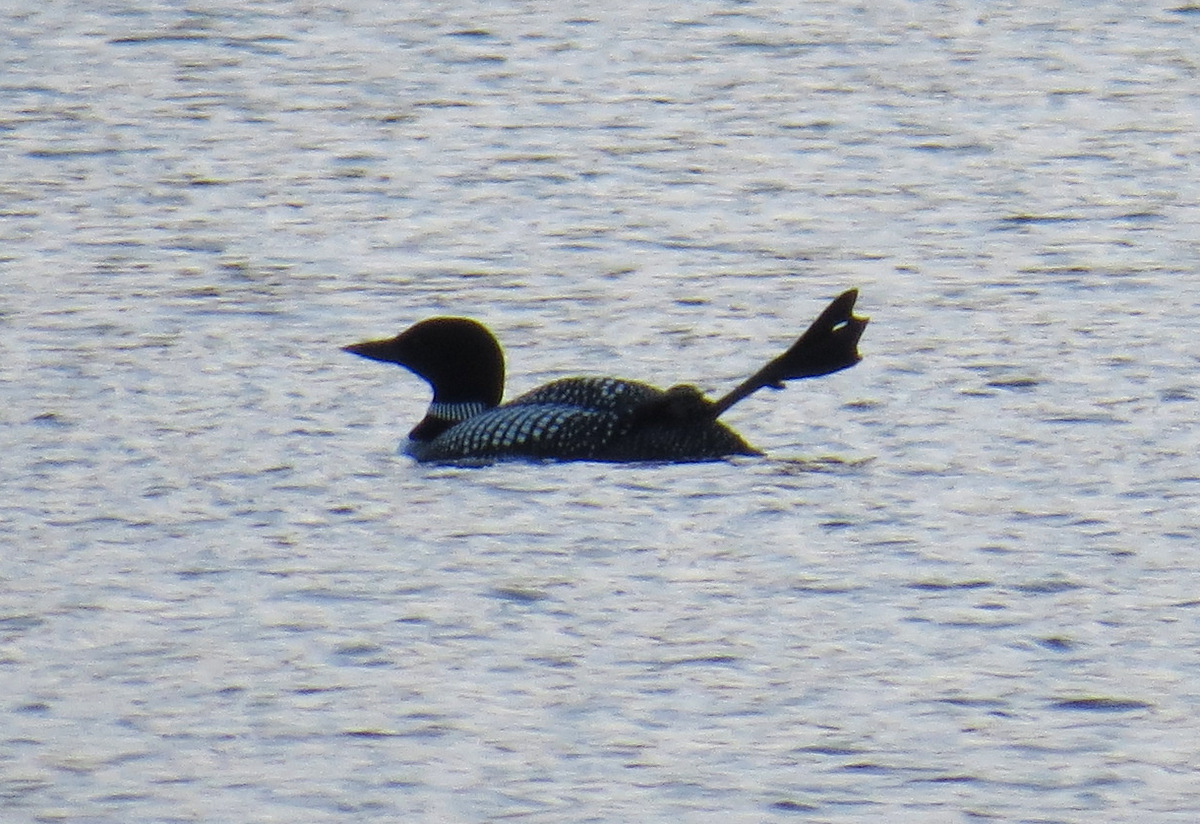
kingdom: Animalia
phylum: Chordata
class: Aves
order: Gaviiformes
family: Gaviidae
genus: Gavia
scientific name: Gavia immer
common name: Common loon
